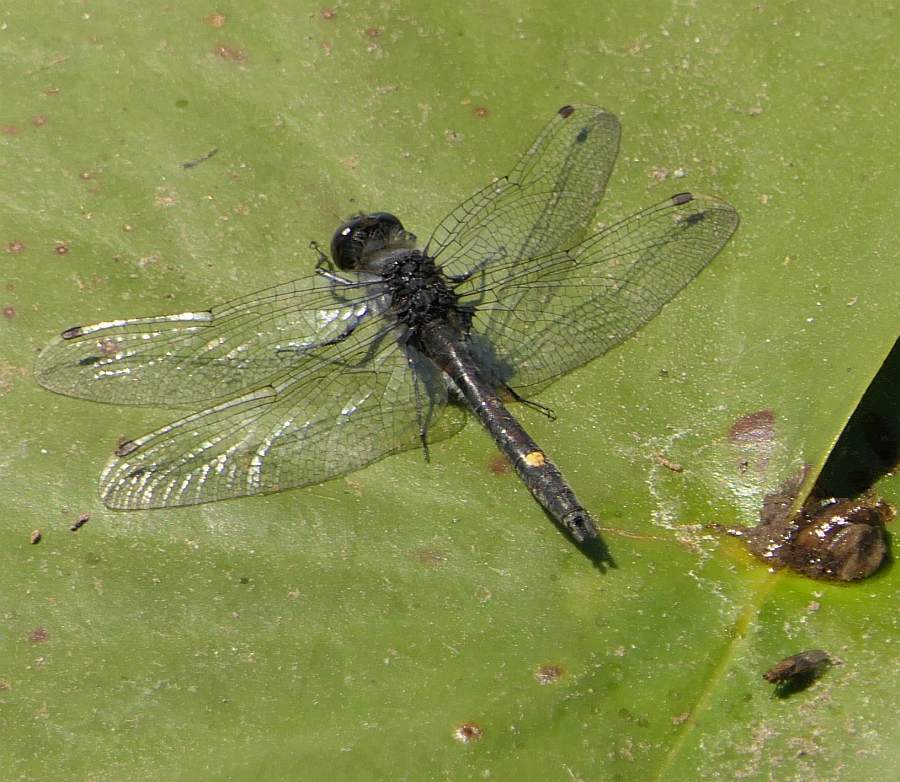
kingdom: Animalia
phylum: Arthropoda
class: Insecta
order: Odonata
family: Libellulidae
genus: Leucorrhinia
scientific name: Leucorrhinia intacta
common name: Dot-tailed whiteface
